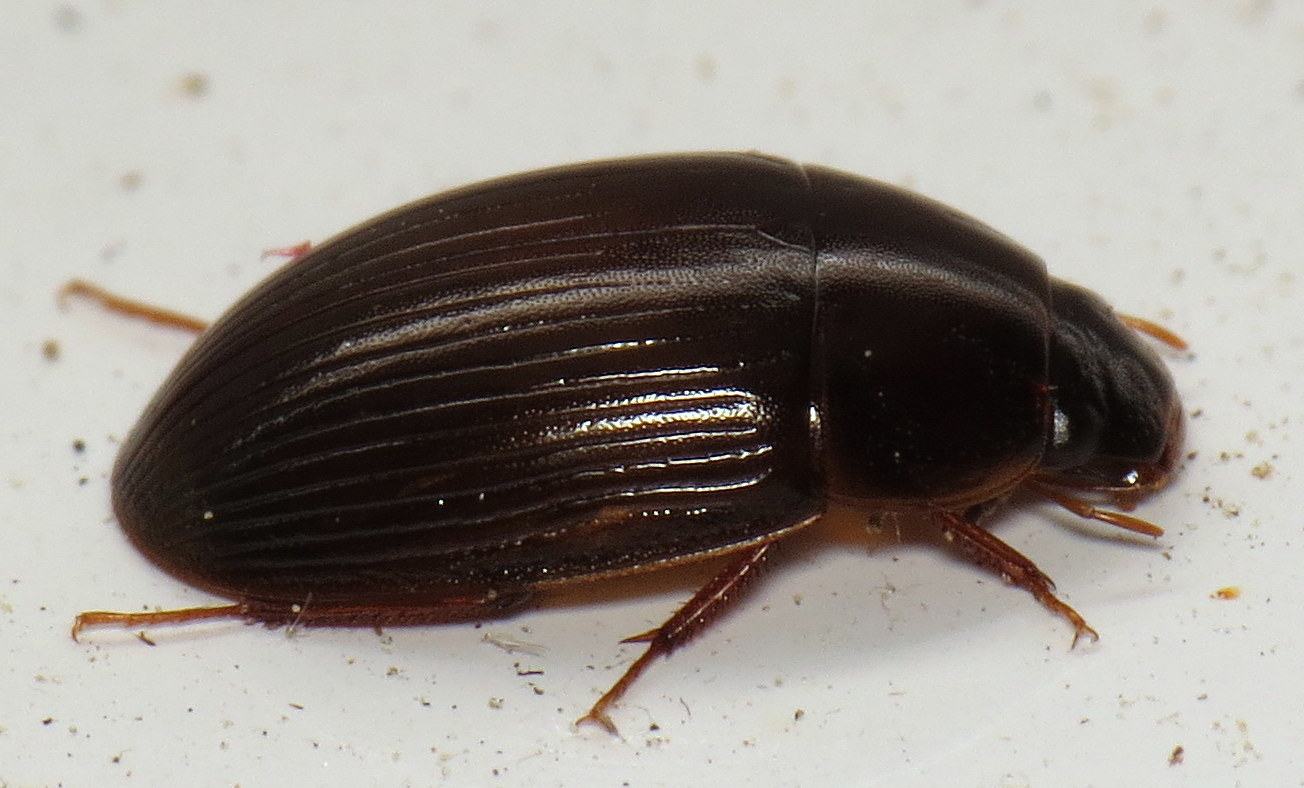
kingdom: Animalia
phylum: Arthropoda
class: Insecta
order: Coleoptera
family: Hydrophilidae
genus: Cymbiodyta
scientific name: Cymbiodyta bifida
